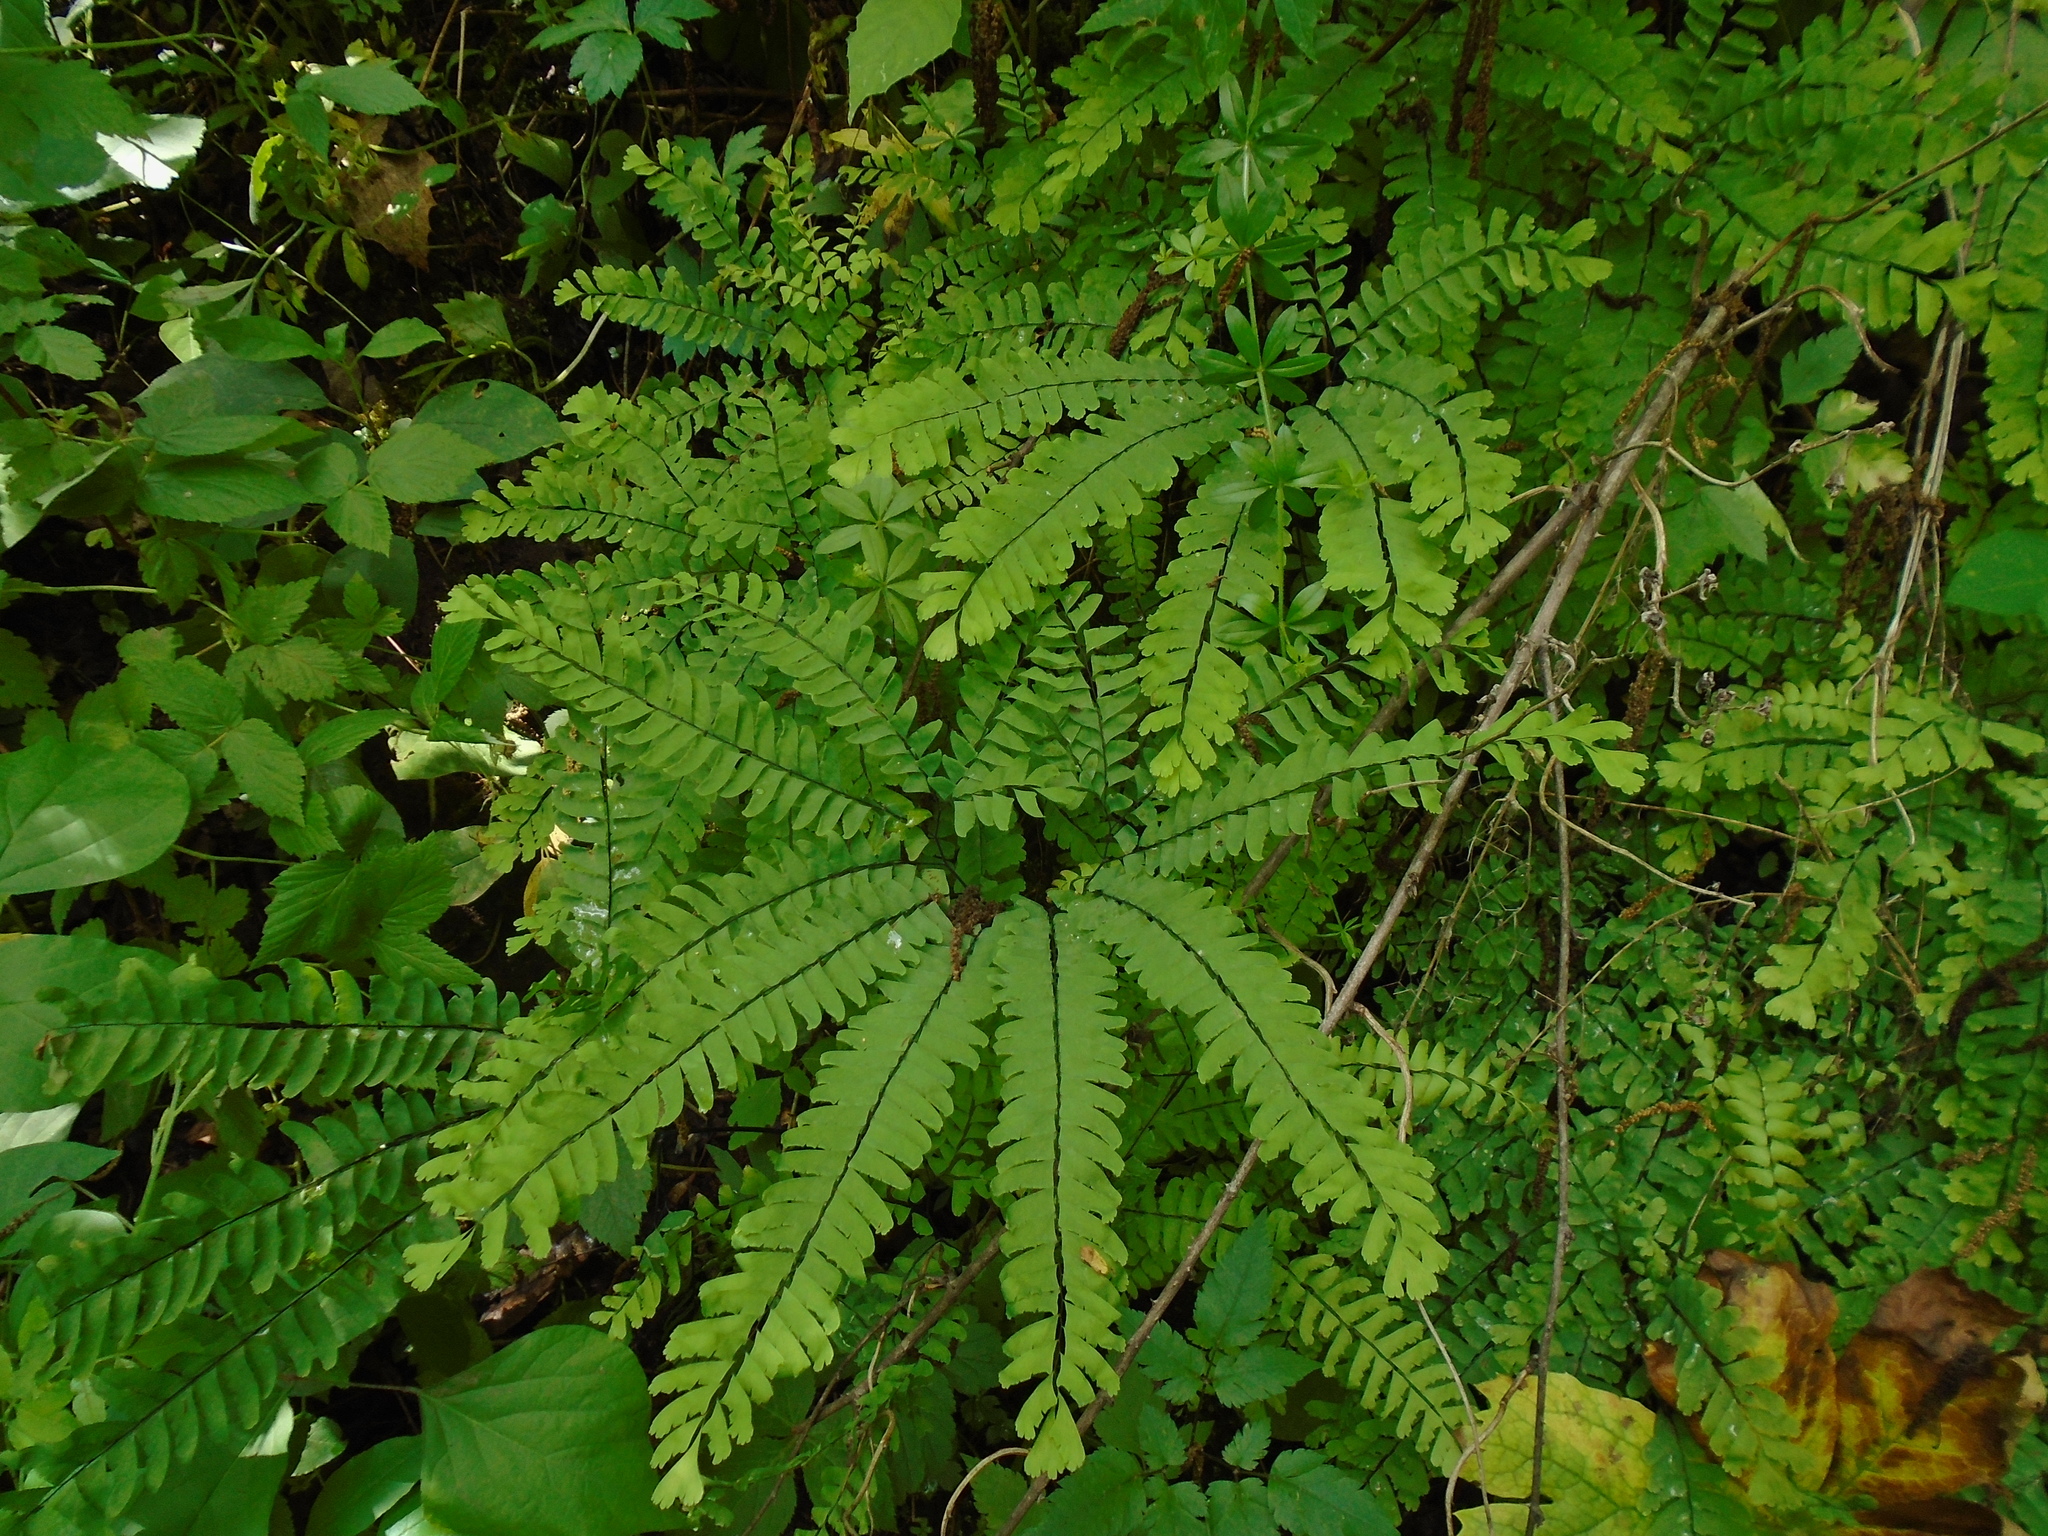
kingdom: Plantae
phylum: Tracheophyta
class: Polypodiopsida
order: Polypodiales
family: Pteridaceae
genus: Adiantum
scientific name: Adiantum pedatum
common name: Five-finger fern
